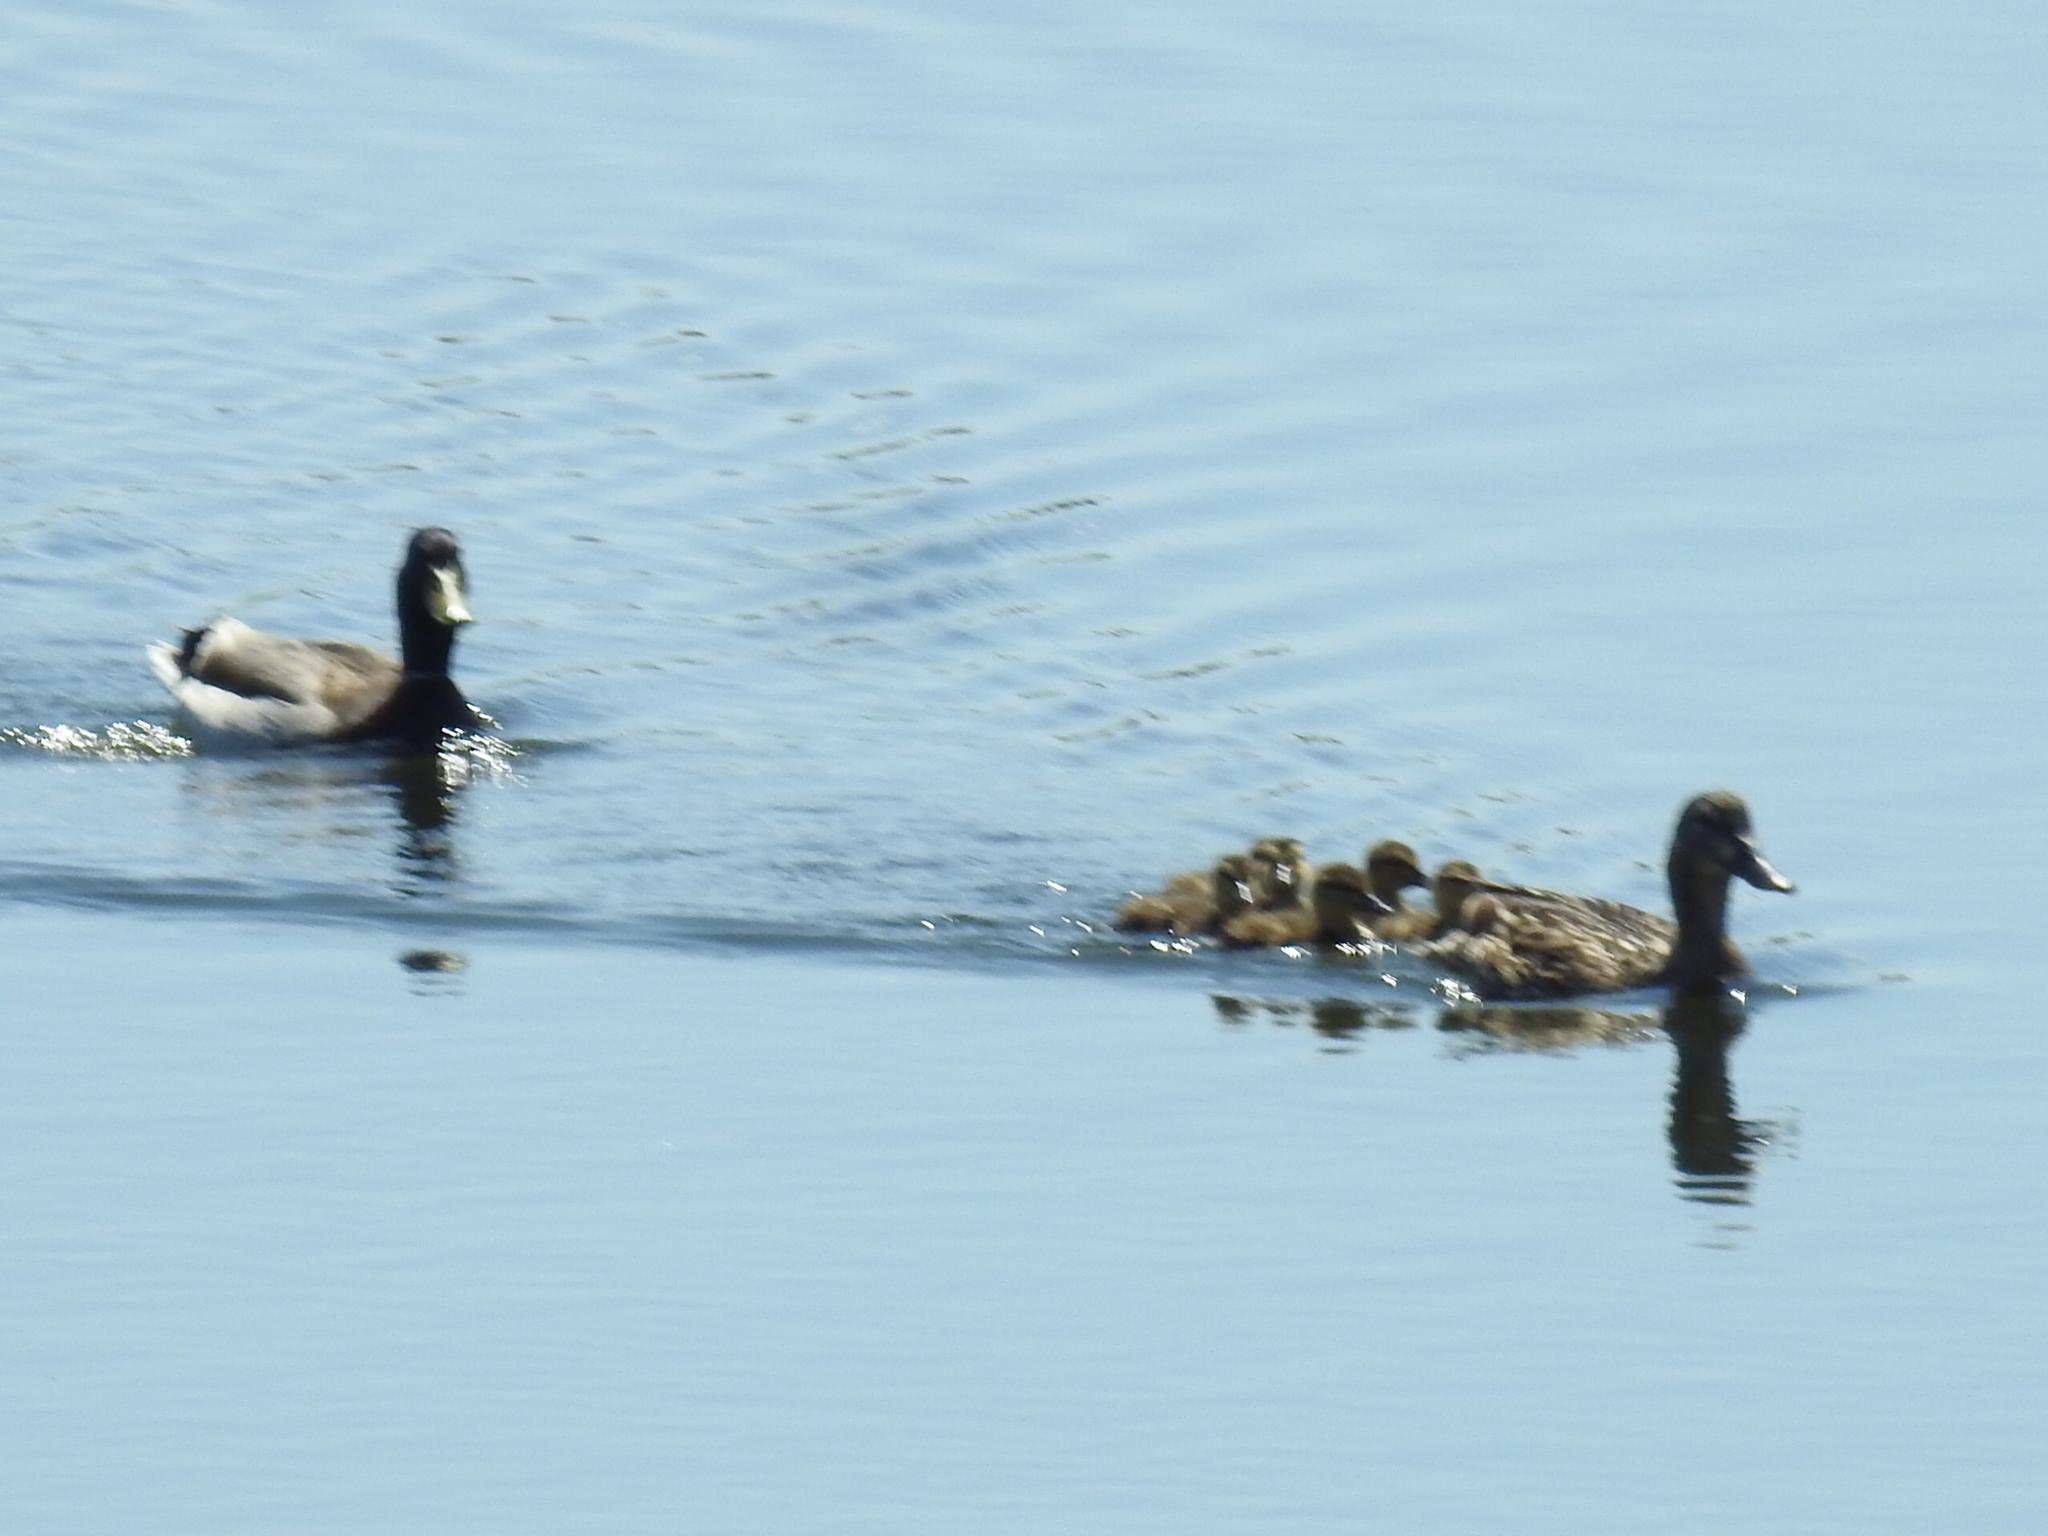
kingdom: Animalia
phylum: Chordata
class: Aves
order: Anseriformes
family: Anatidae
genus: Anas
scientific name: Anas platyrhynchos
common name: Mallard
